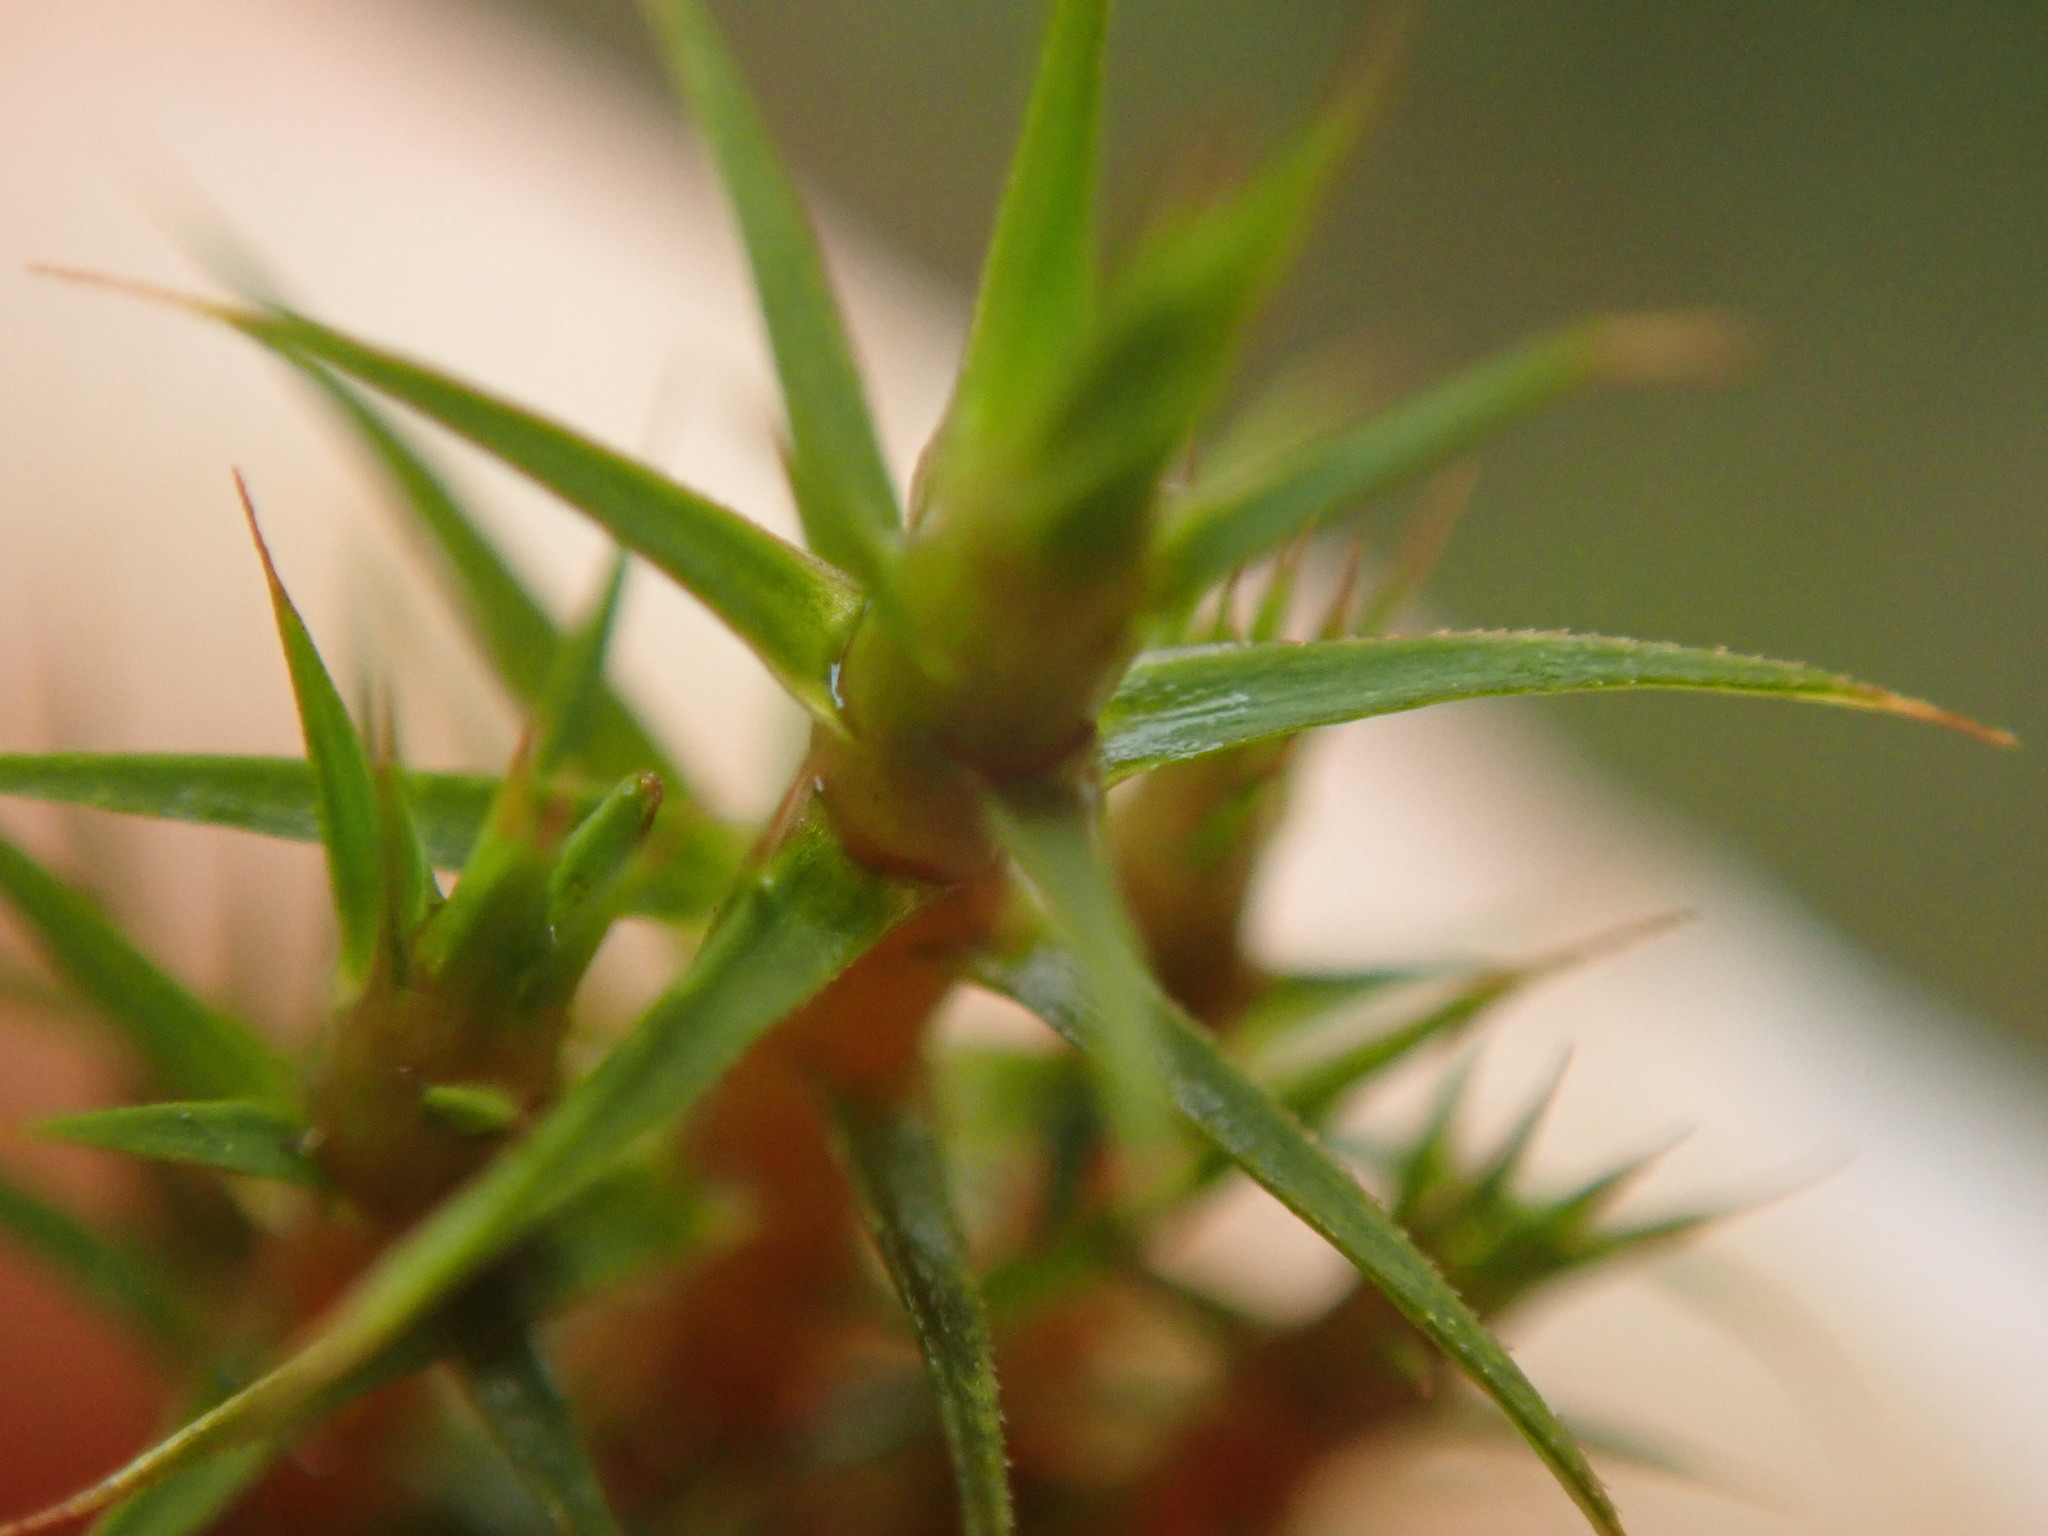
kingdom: Plantae
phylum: Bryophyta
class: Polytrichopsida
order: Polytrichales
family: Polytrichaceae
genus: Polytrichum
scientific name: Polytrichum commune
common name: Common haircap
